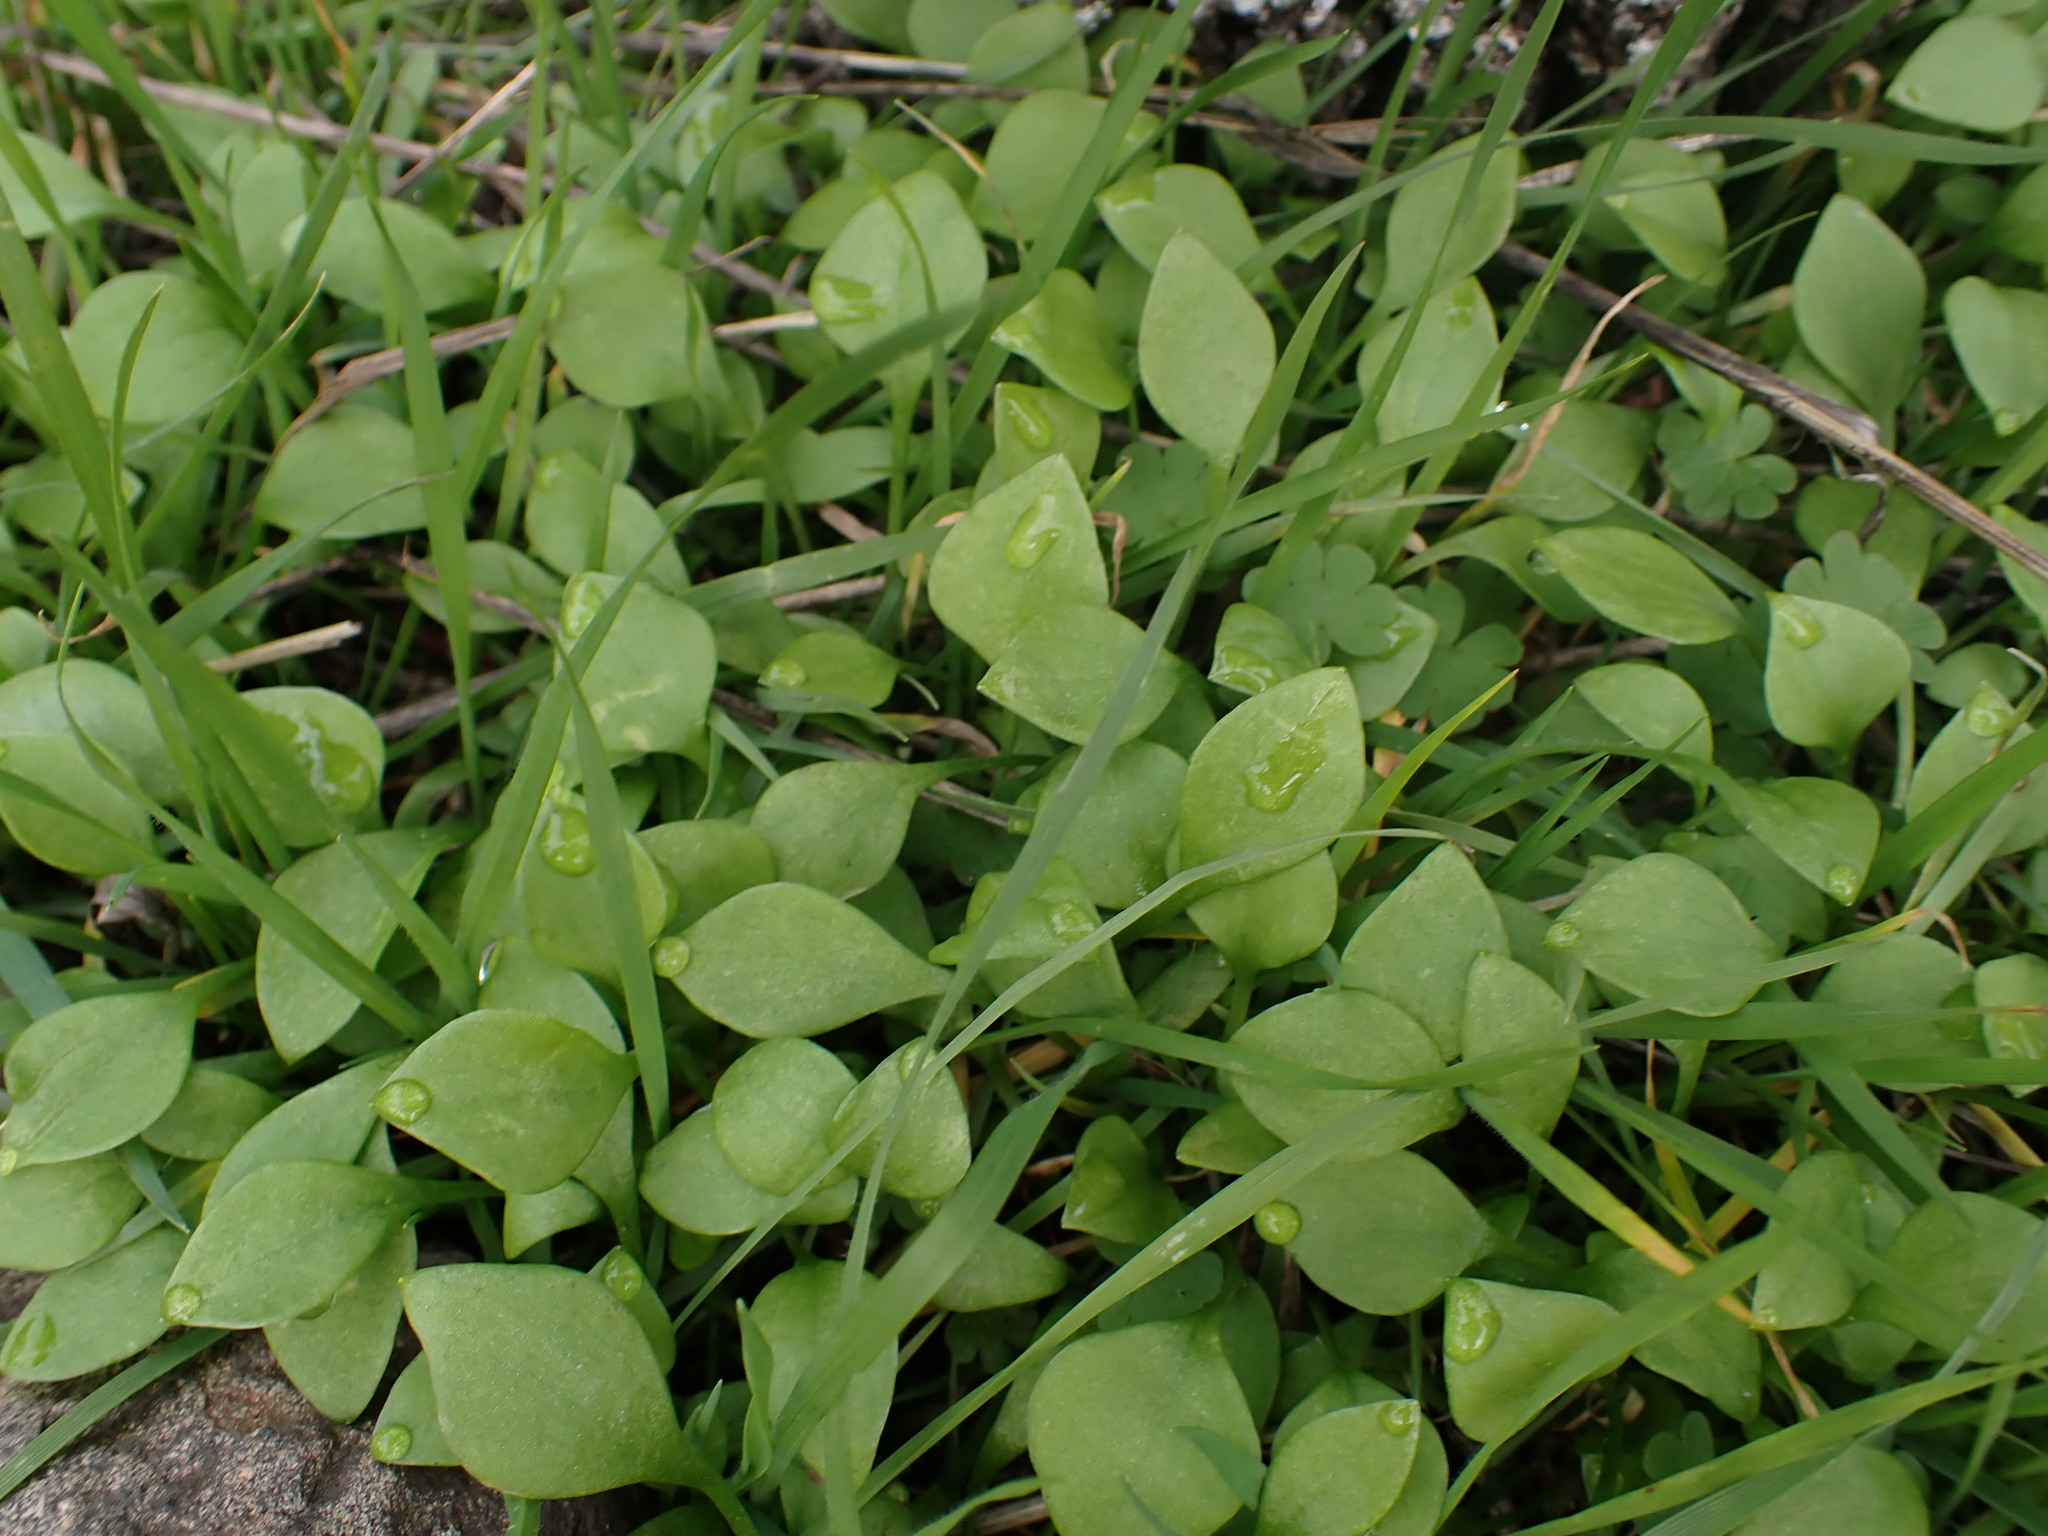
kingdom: Plantae
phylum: Tracheophyta
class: Magnoliopsida
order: Caryophyllales
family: Montiaceae
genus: Claytonia
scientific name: Claytonia perfoliata
